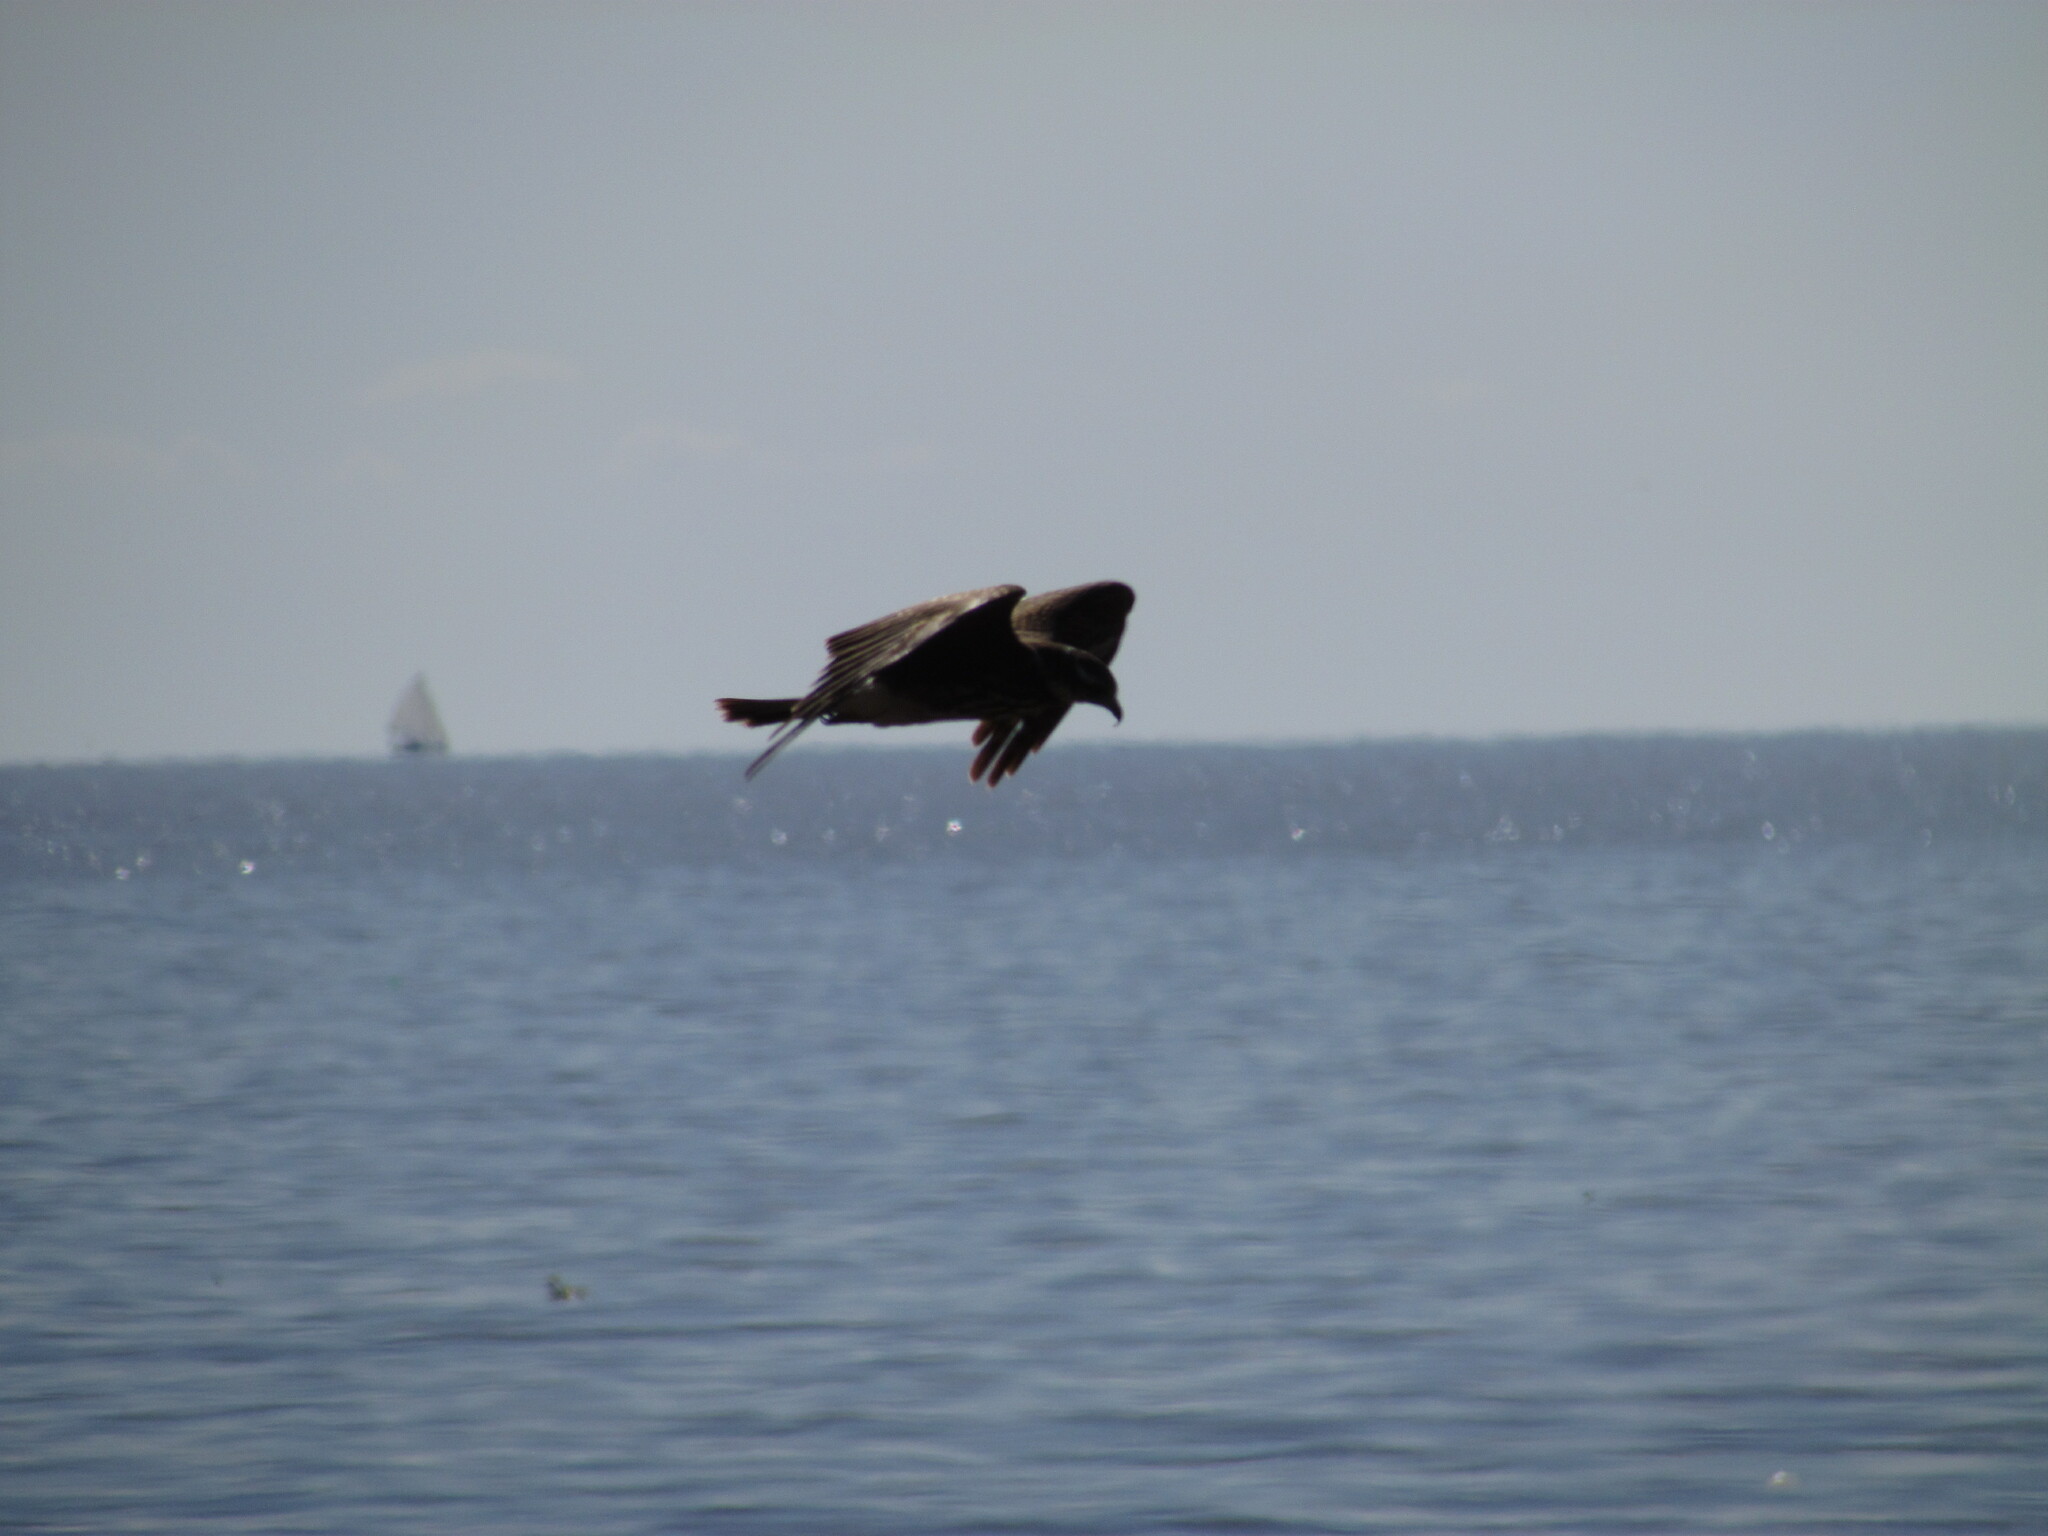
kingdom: Animalia
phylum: Chordata
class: Aves
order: Accipitriformes
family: Accipitridae
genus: Rostrhamus
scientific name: Rostrhamus sociabilis
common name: Snail kite
